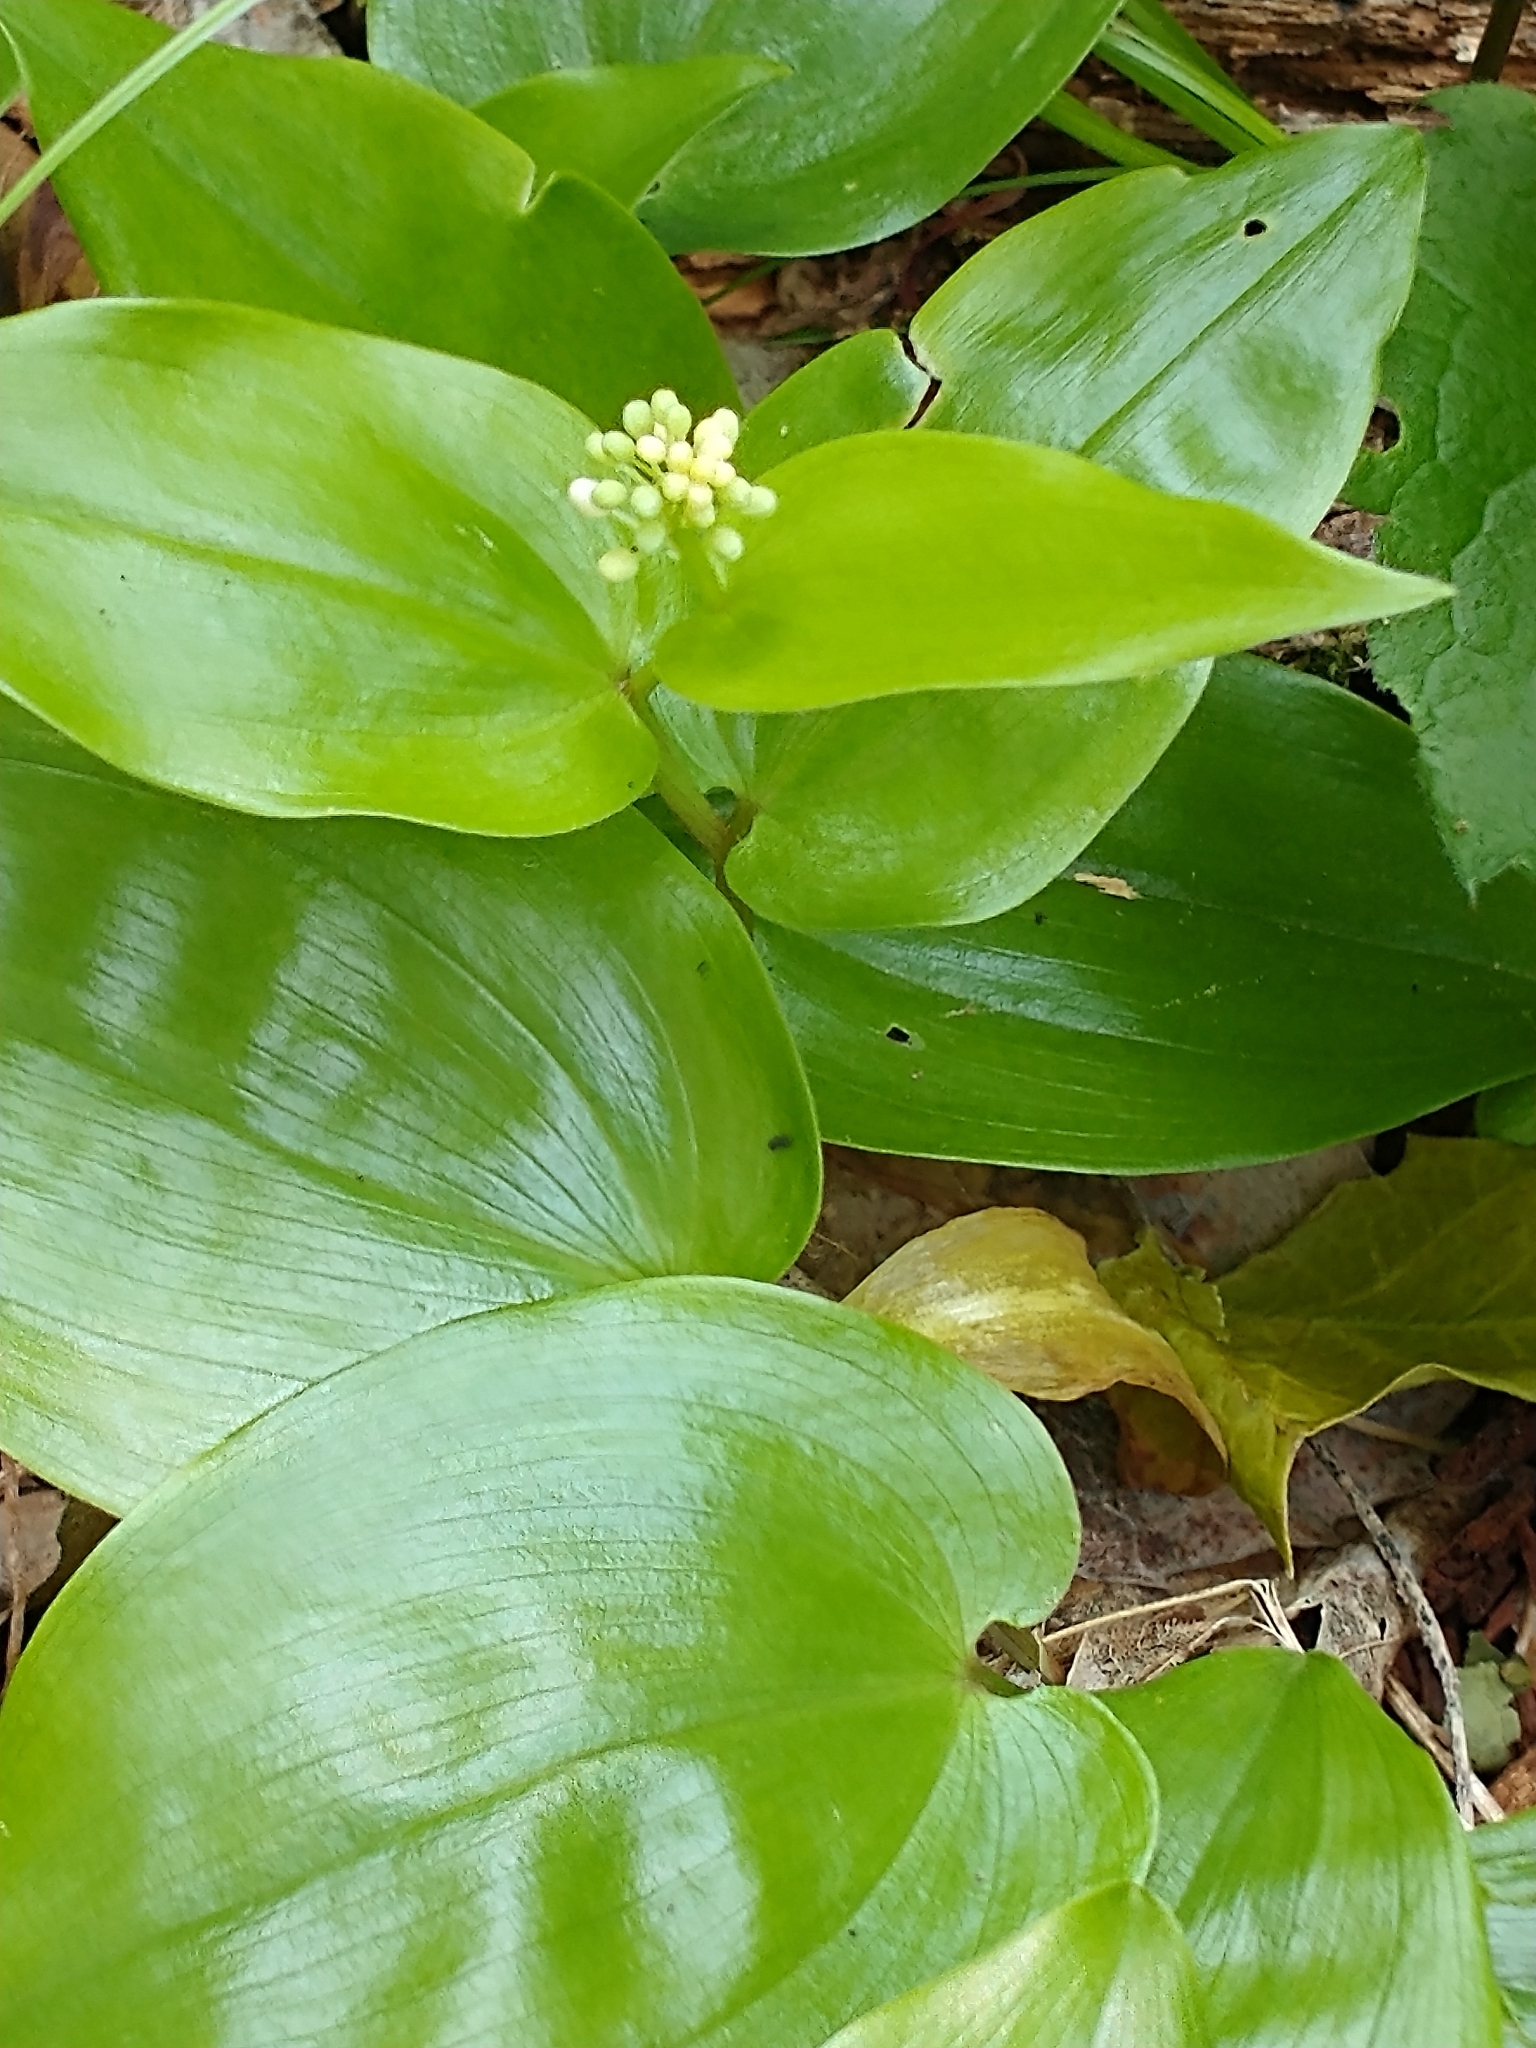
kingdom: Plantae
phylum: Tracheophyta
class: Liliopsida
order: Asparagales
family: Asparagaceae
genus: Maianthemum
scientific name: Maianthemum canadense
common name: False lily-of-the-valley
